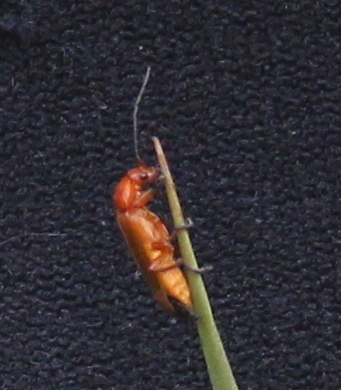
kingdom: Animalia
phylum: Arthropoda
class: Insecta
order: Coleoptera
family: Cantharidae
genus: Rhagonycha
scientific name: Rhagonycha fulva
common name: Common red soldier beetle
